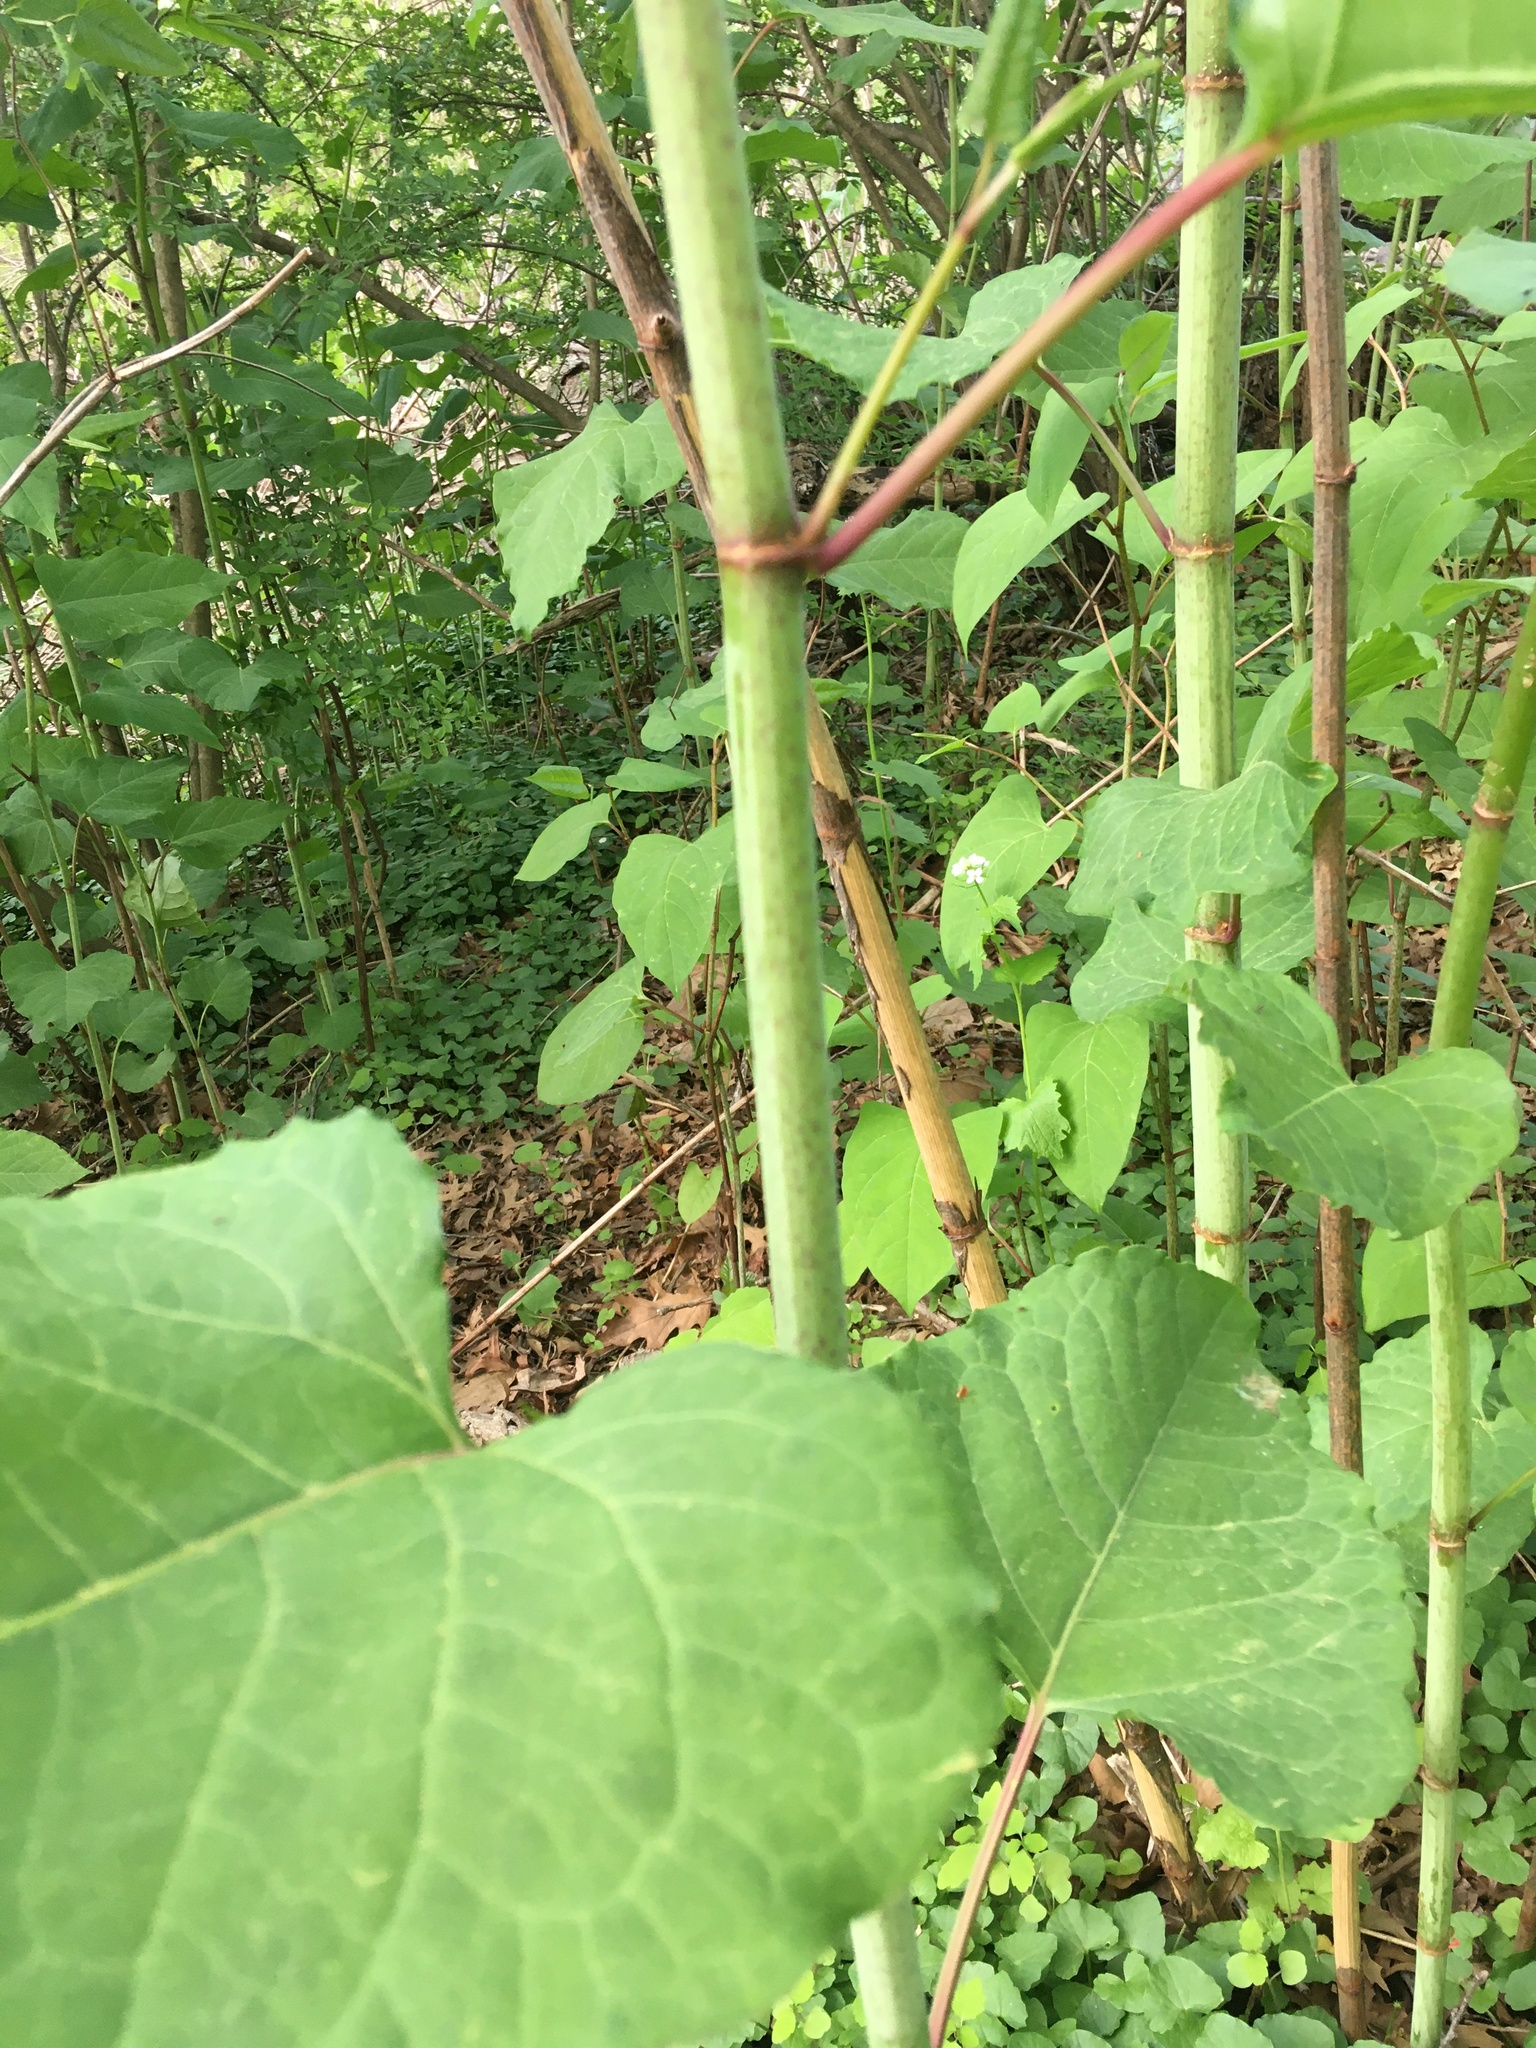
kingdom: Plantae
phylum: Tracheophyta
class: Magnoliopsida
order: Caryophyllales
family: Polygonaceae
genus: Reynoutria
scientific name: Reynoutria sachalinensis
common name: Giant knotweed
